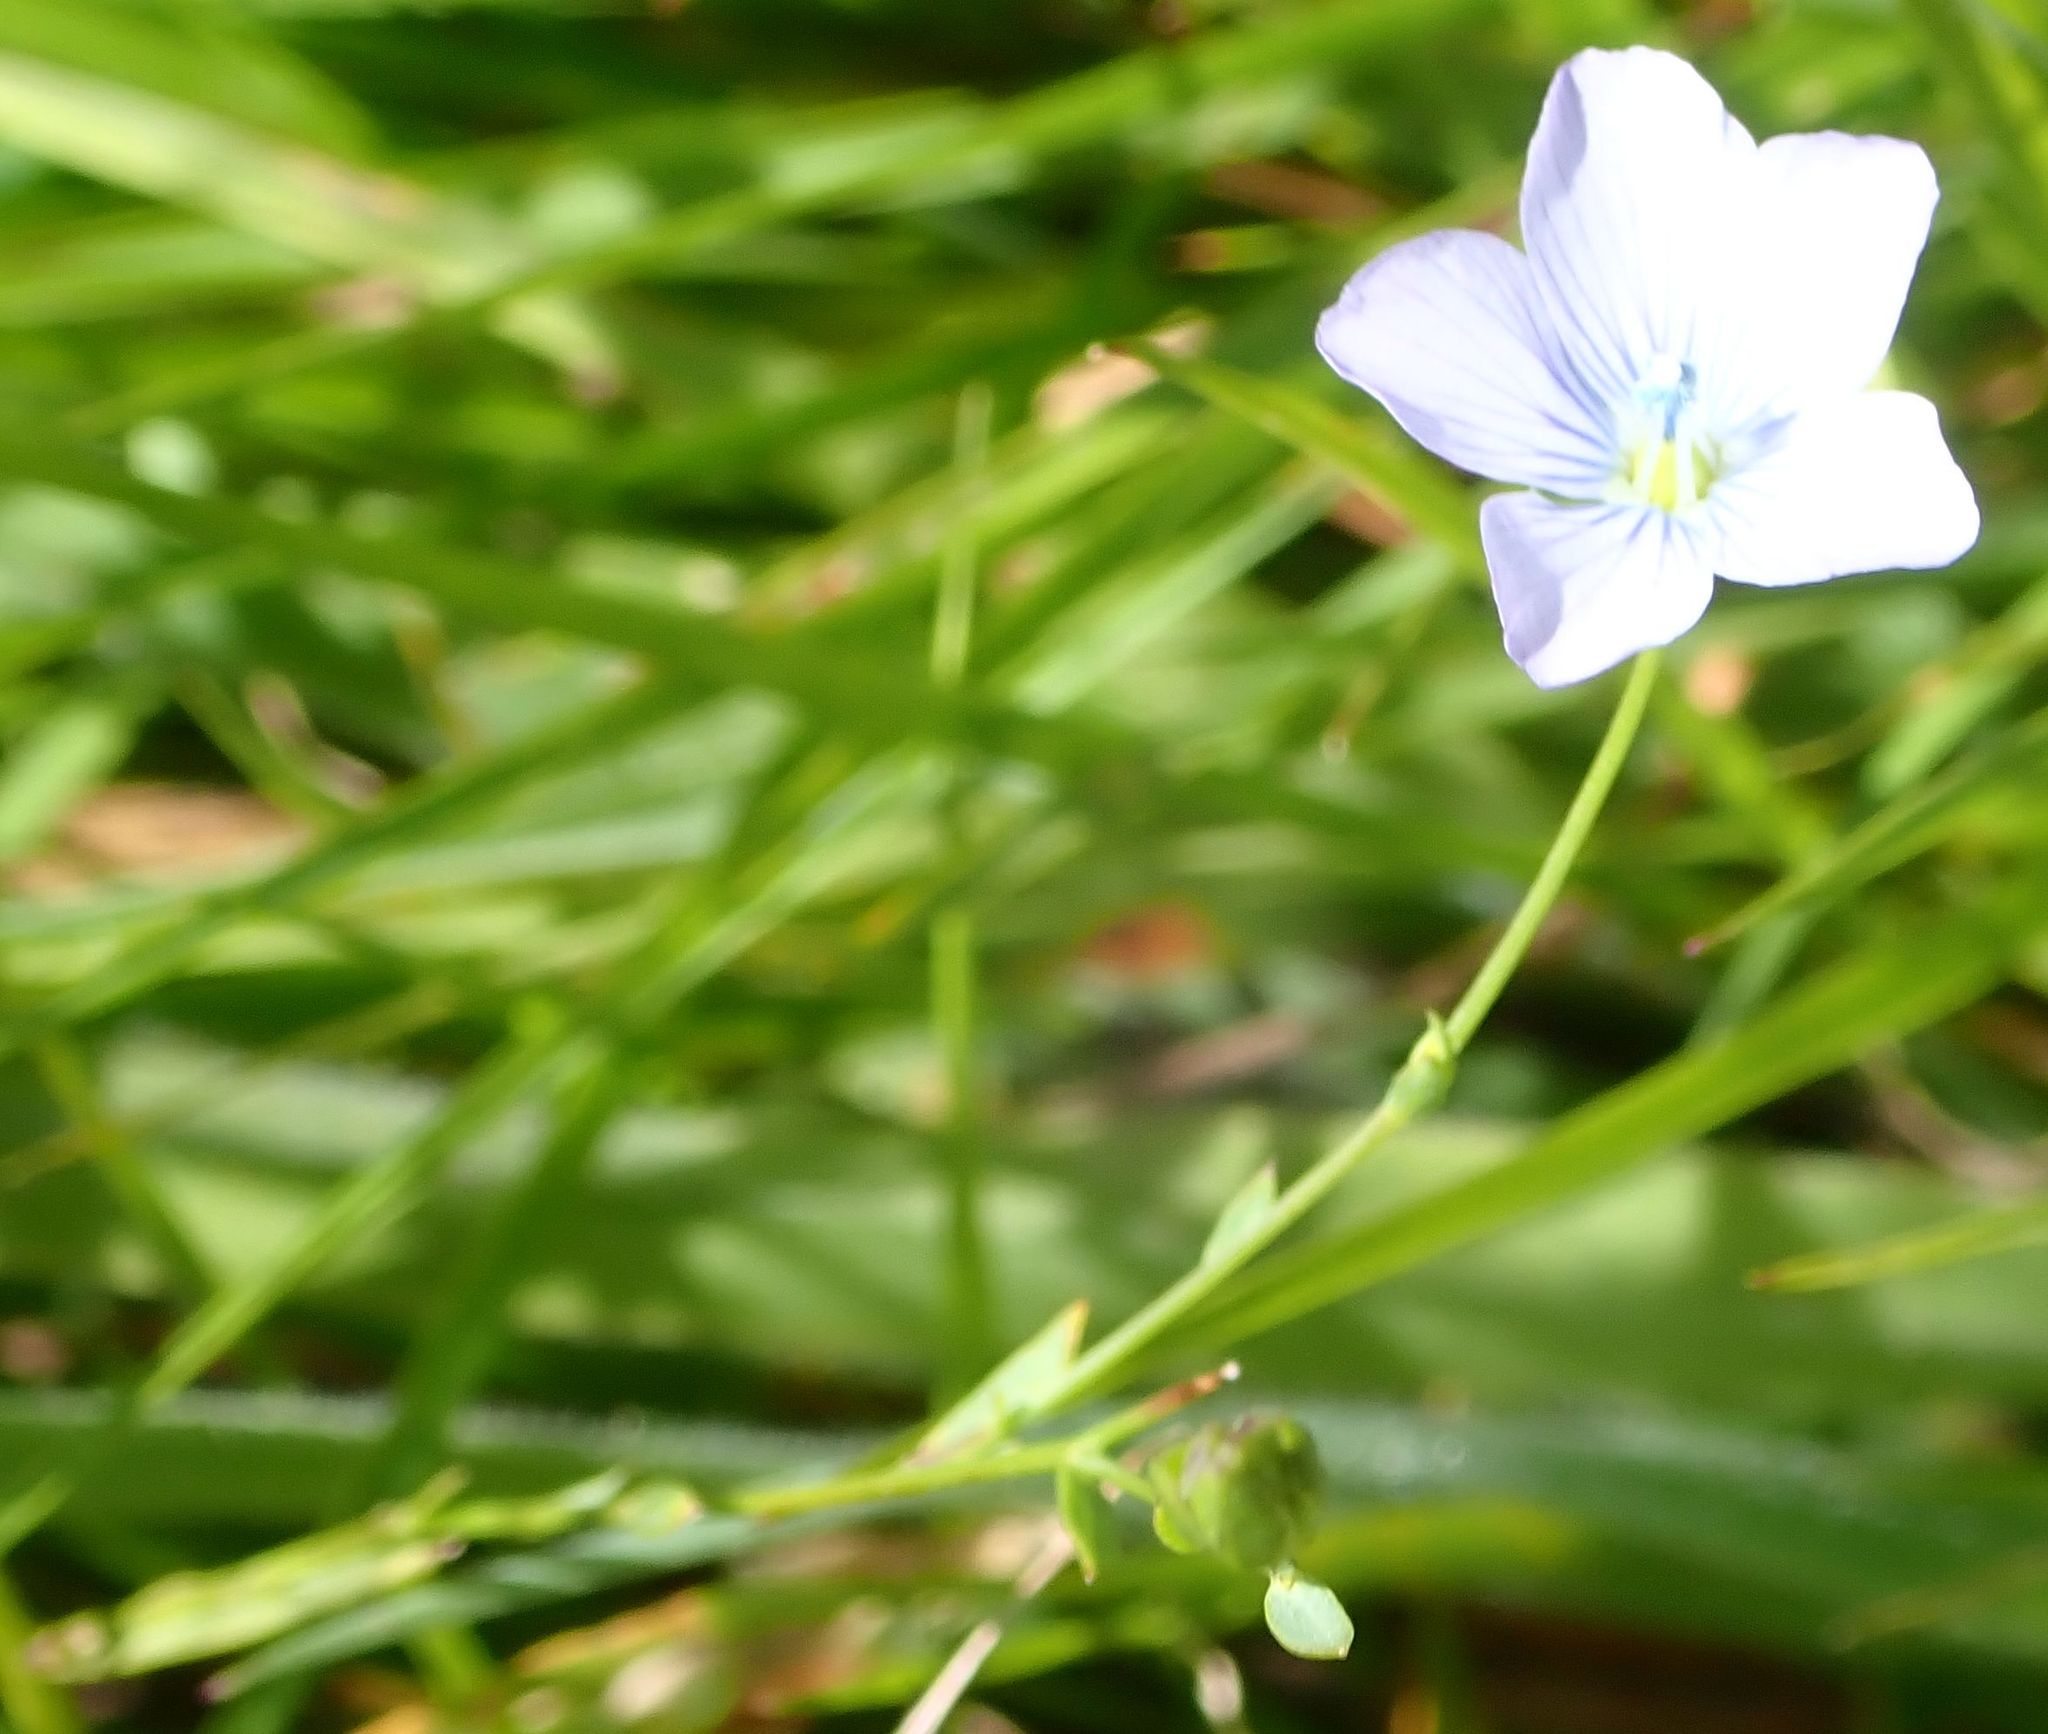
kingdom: Plantae
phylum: Tracheophyta
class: Magnoliopsida
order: Malpighiales
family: Linaceae
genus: Linum
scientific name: Linum bienne
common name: Pale flax
